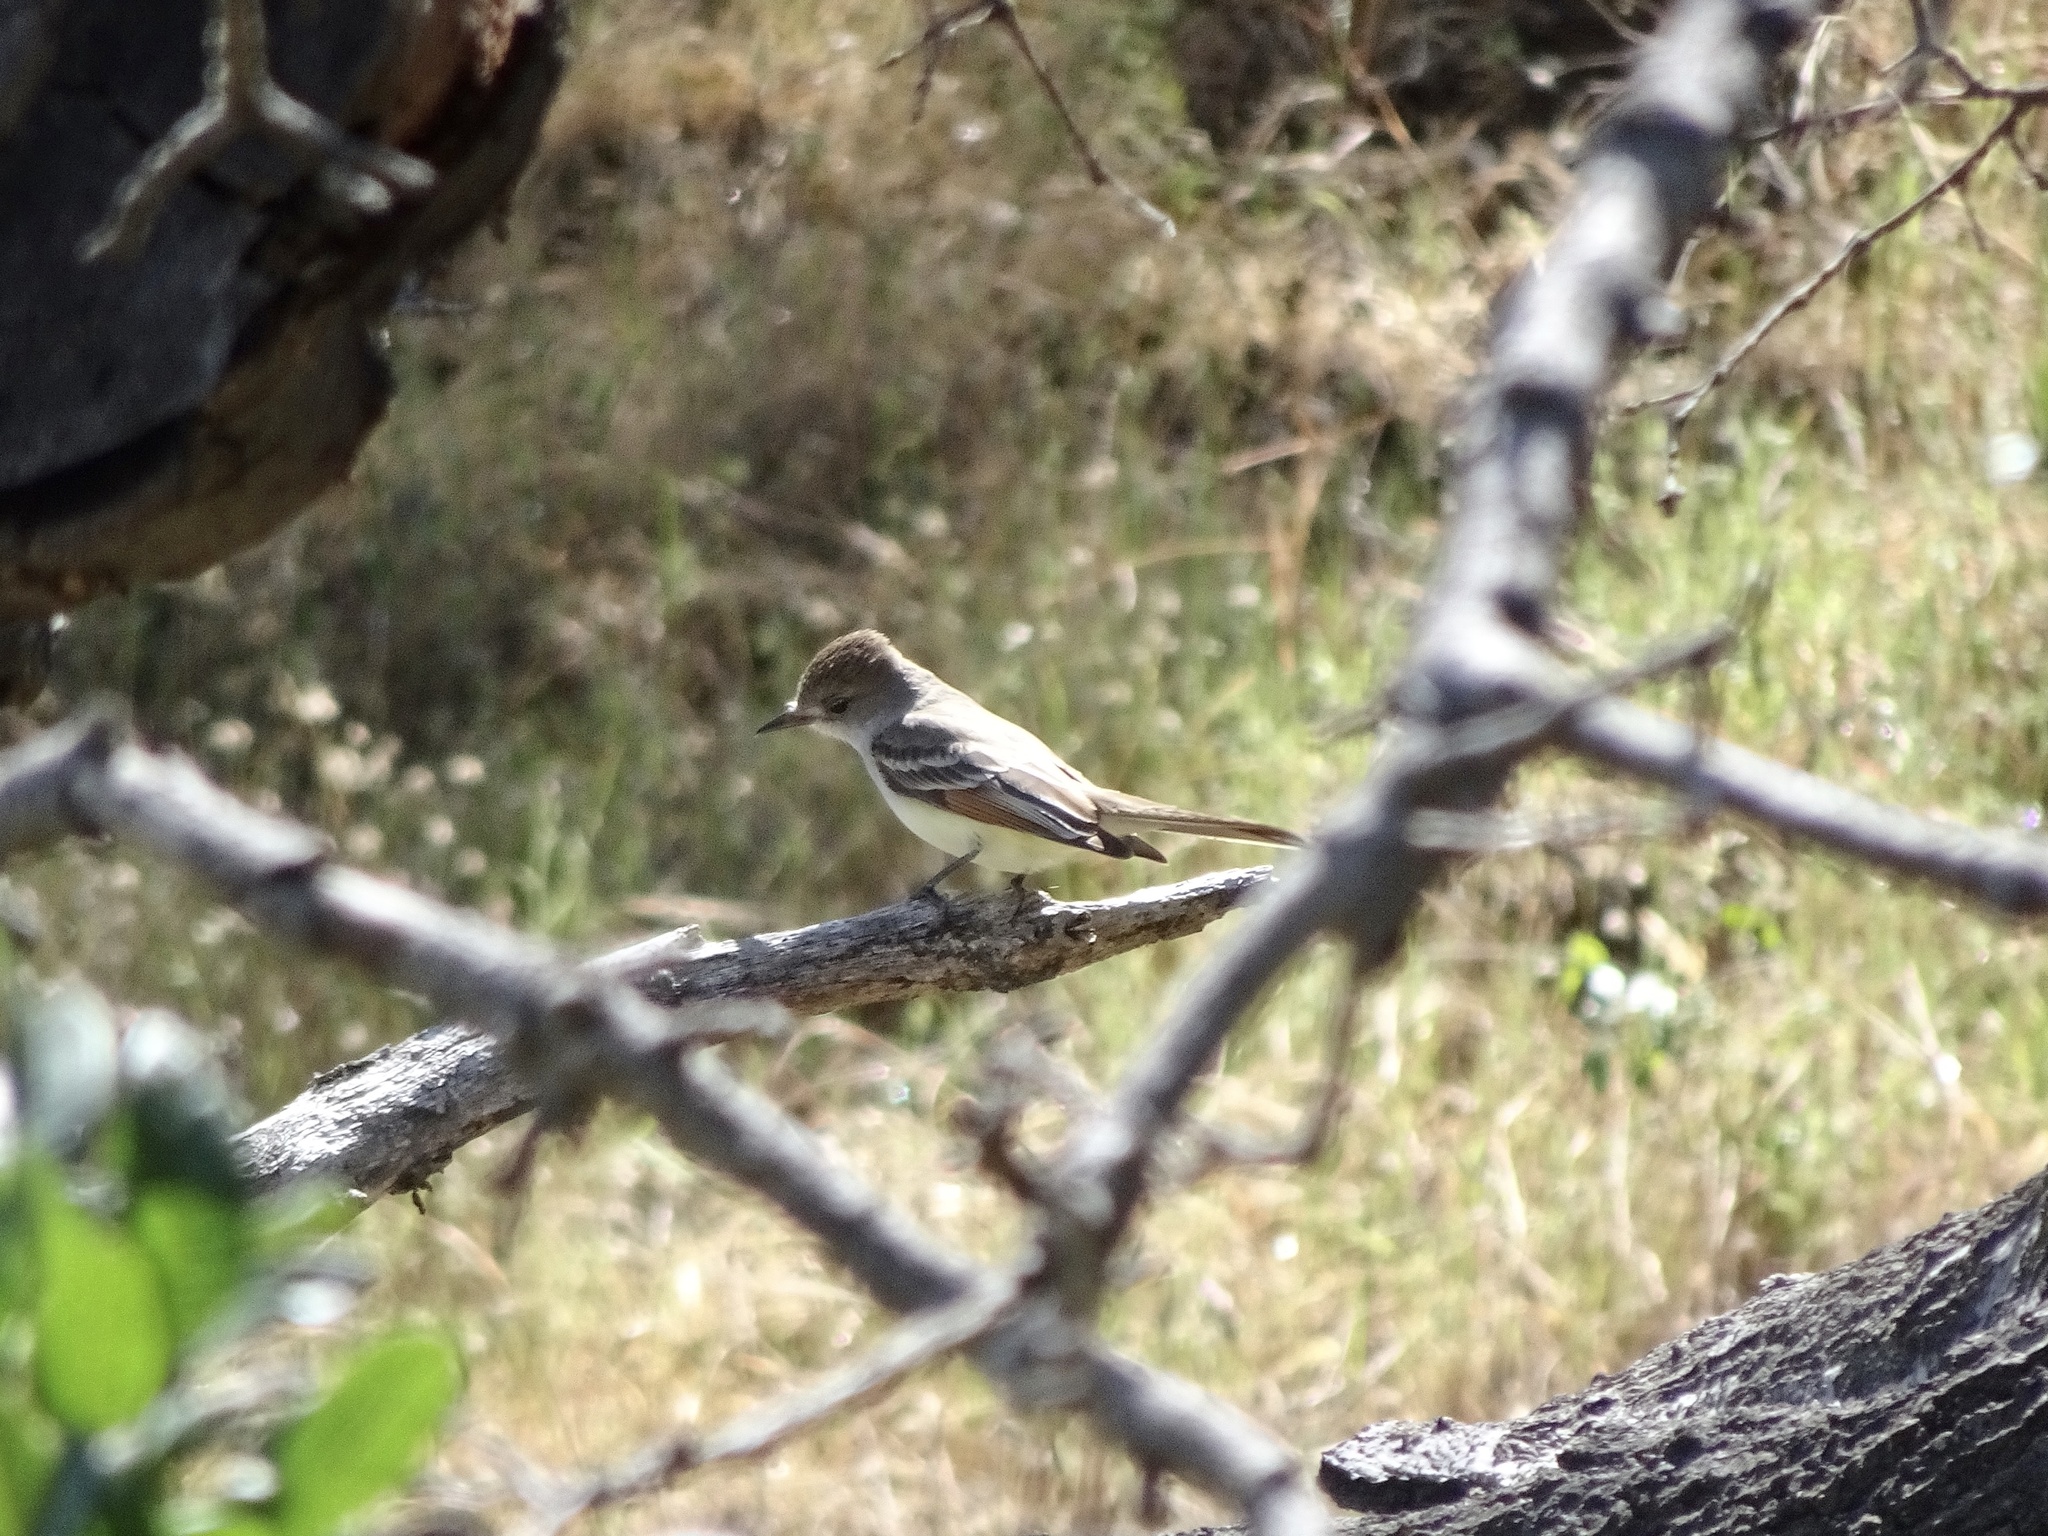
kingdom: Animalia
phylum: Chordata
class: Aves
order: Passeriformes
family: Tyrannidae
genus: Myiarchus
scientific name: Myiarchus cinerascens
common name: Ash-throated flycatcher
